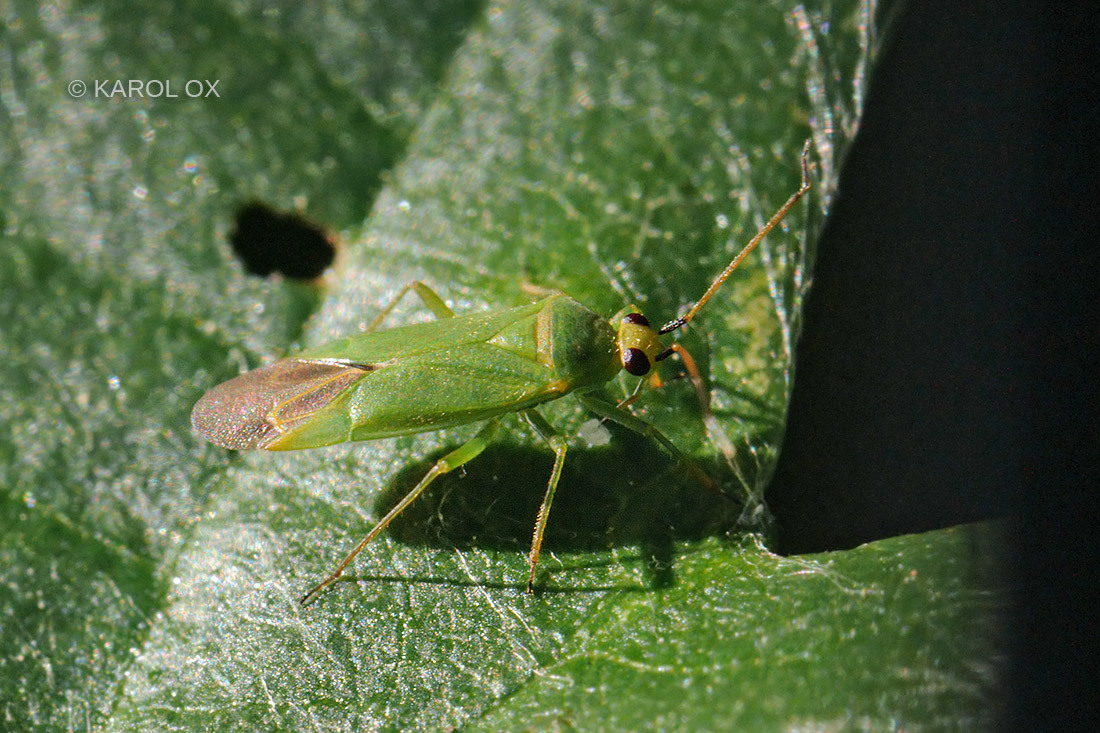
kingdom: Animalia
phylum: Arthropoda
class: Insecta
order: Hemiptera
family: Miridae
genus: Orthotylus
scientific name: Orthotylus flavinervis
